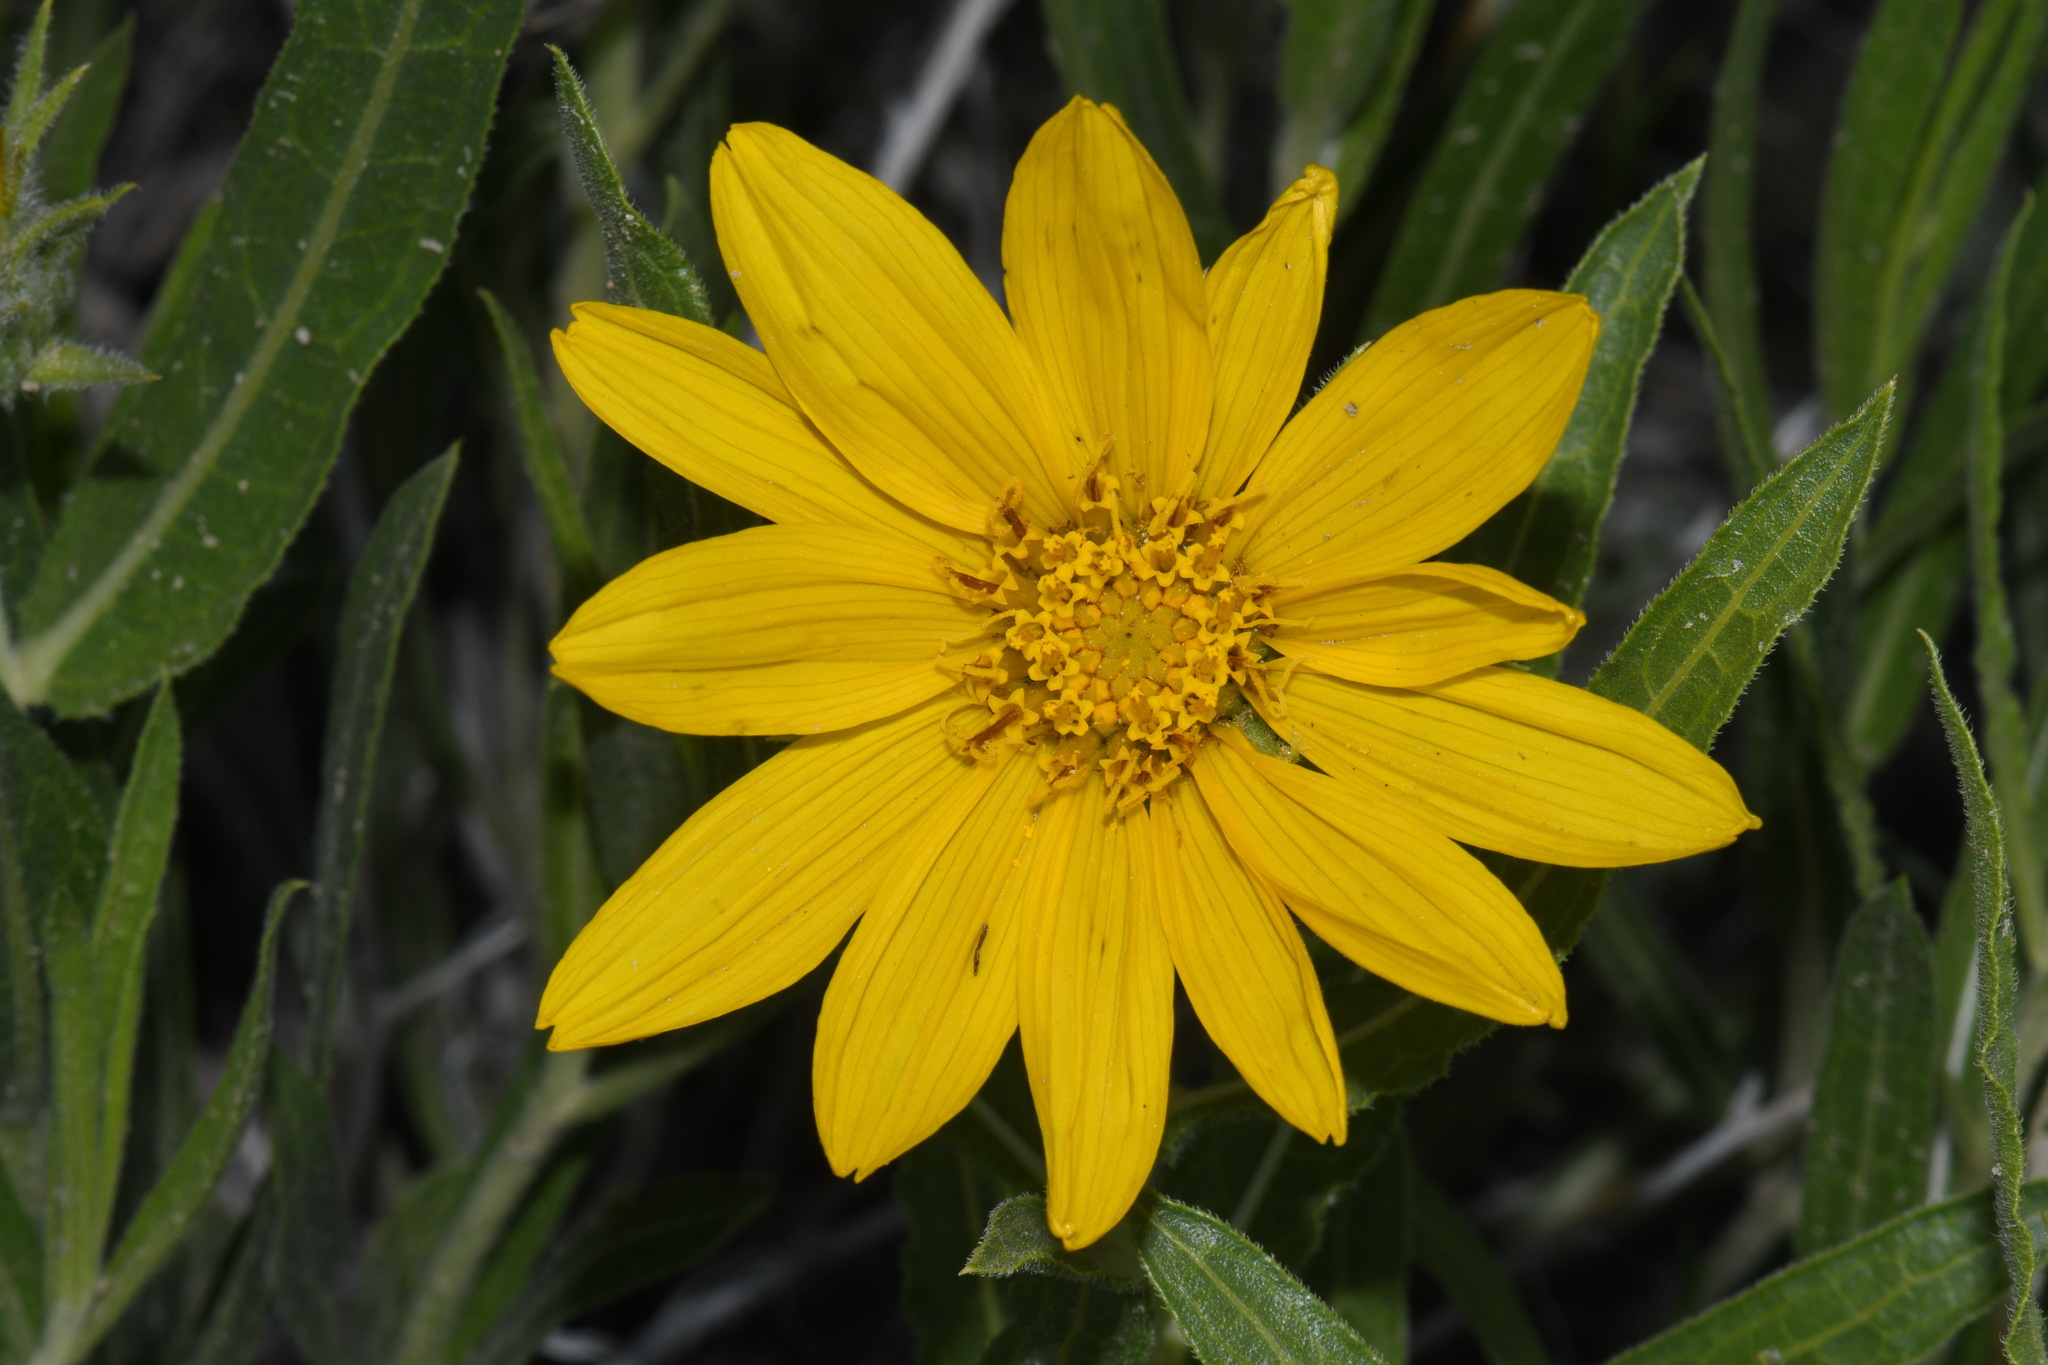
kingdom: Plantae
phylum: Tracheophyta
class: Magnoliopsida
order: Asterales
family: Asteraceae
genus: Scabrethia
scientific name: Scabrethia scabra
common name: Rough mules's-ears
